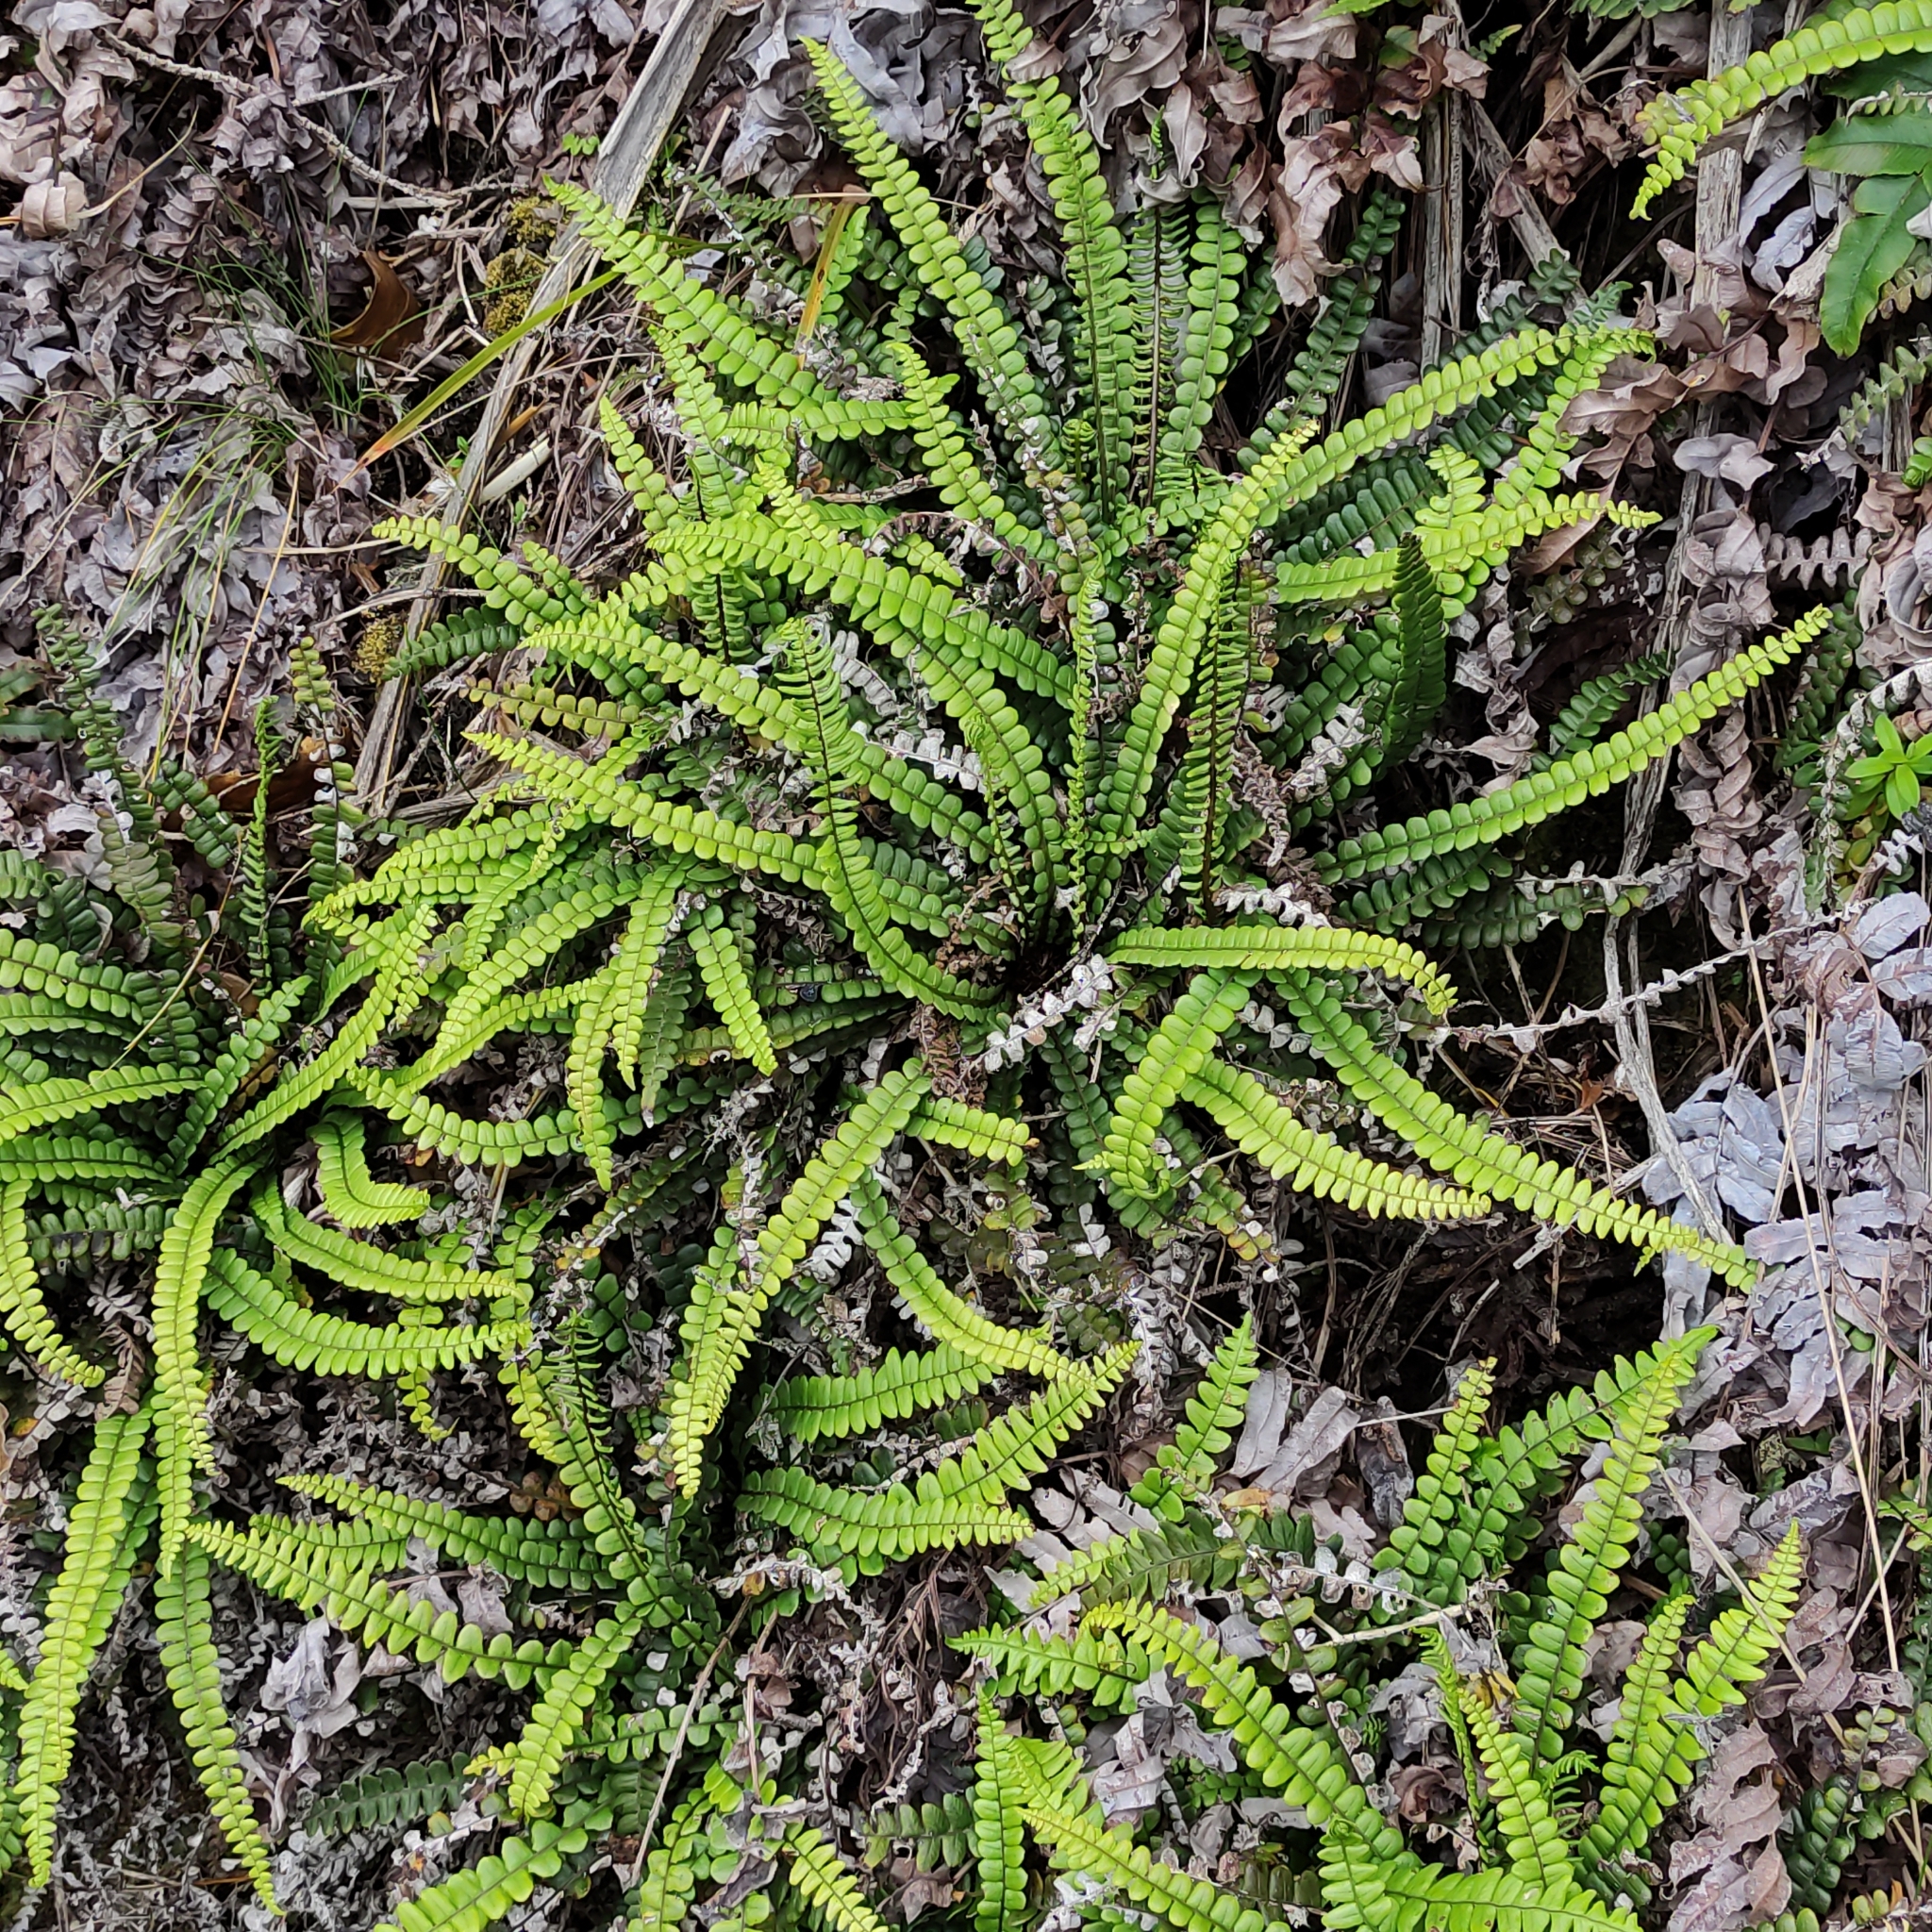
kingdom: Plantae
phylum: Tracheophyta
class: Polypodiopsida
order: Polypodiales
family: Blechnaceae
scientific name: Blechnaceae
